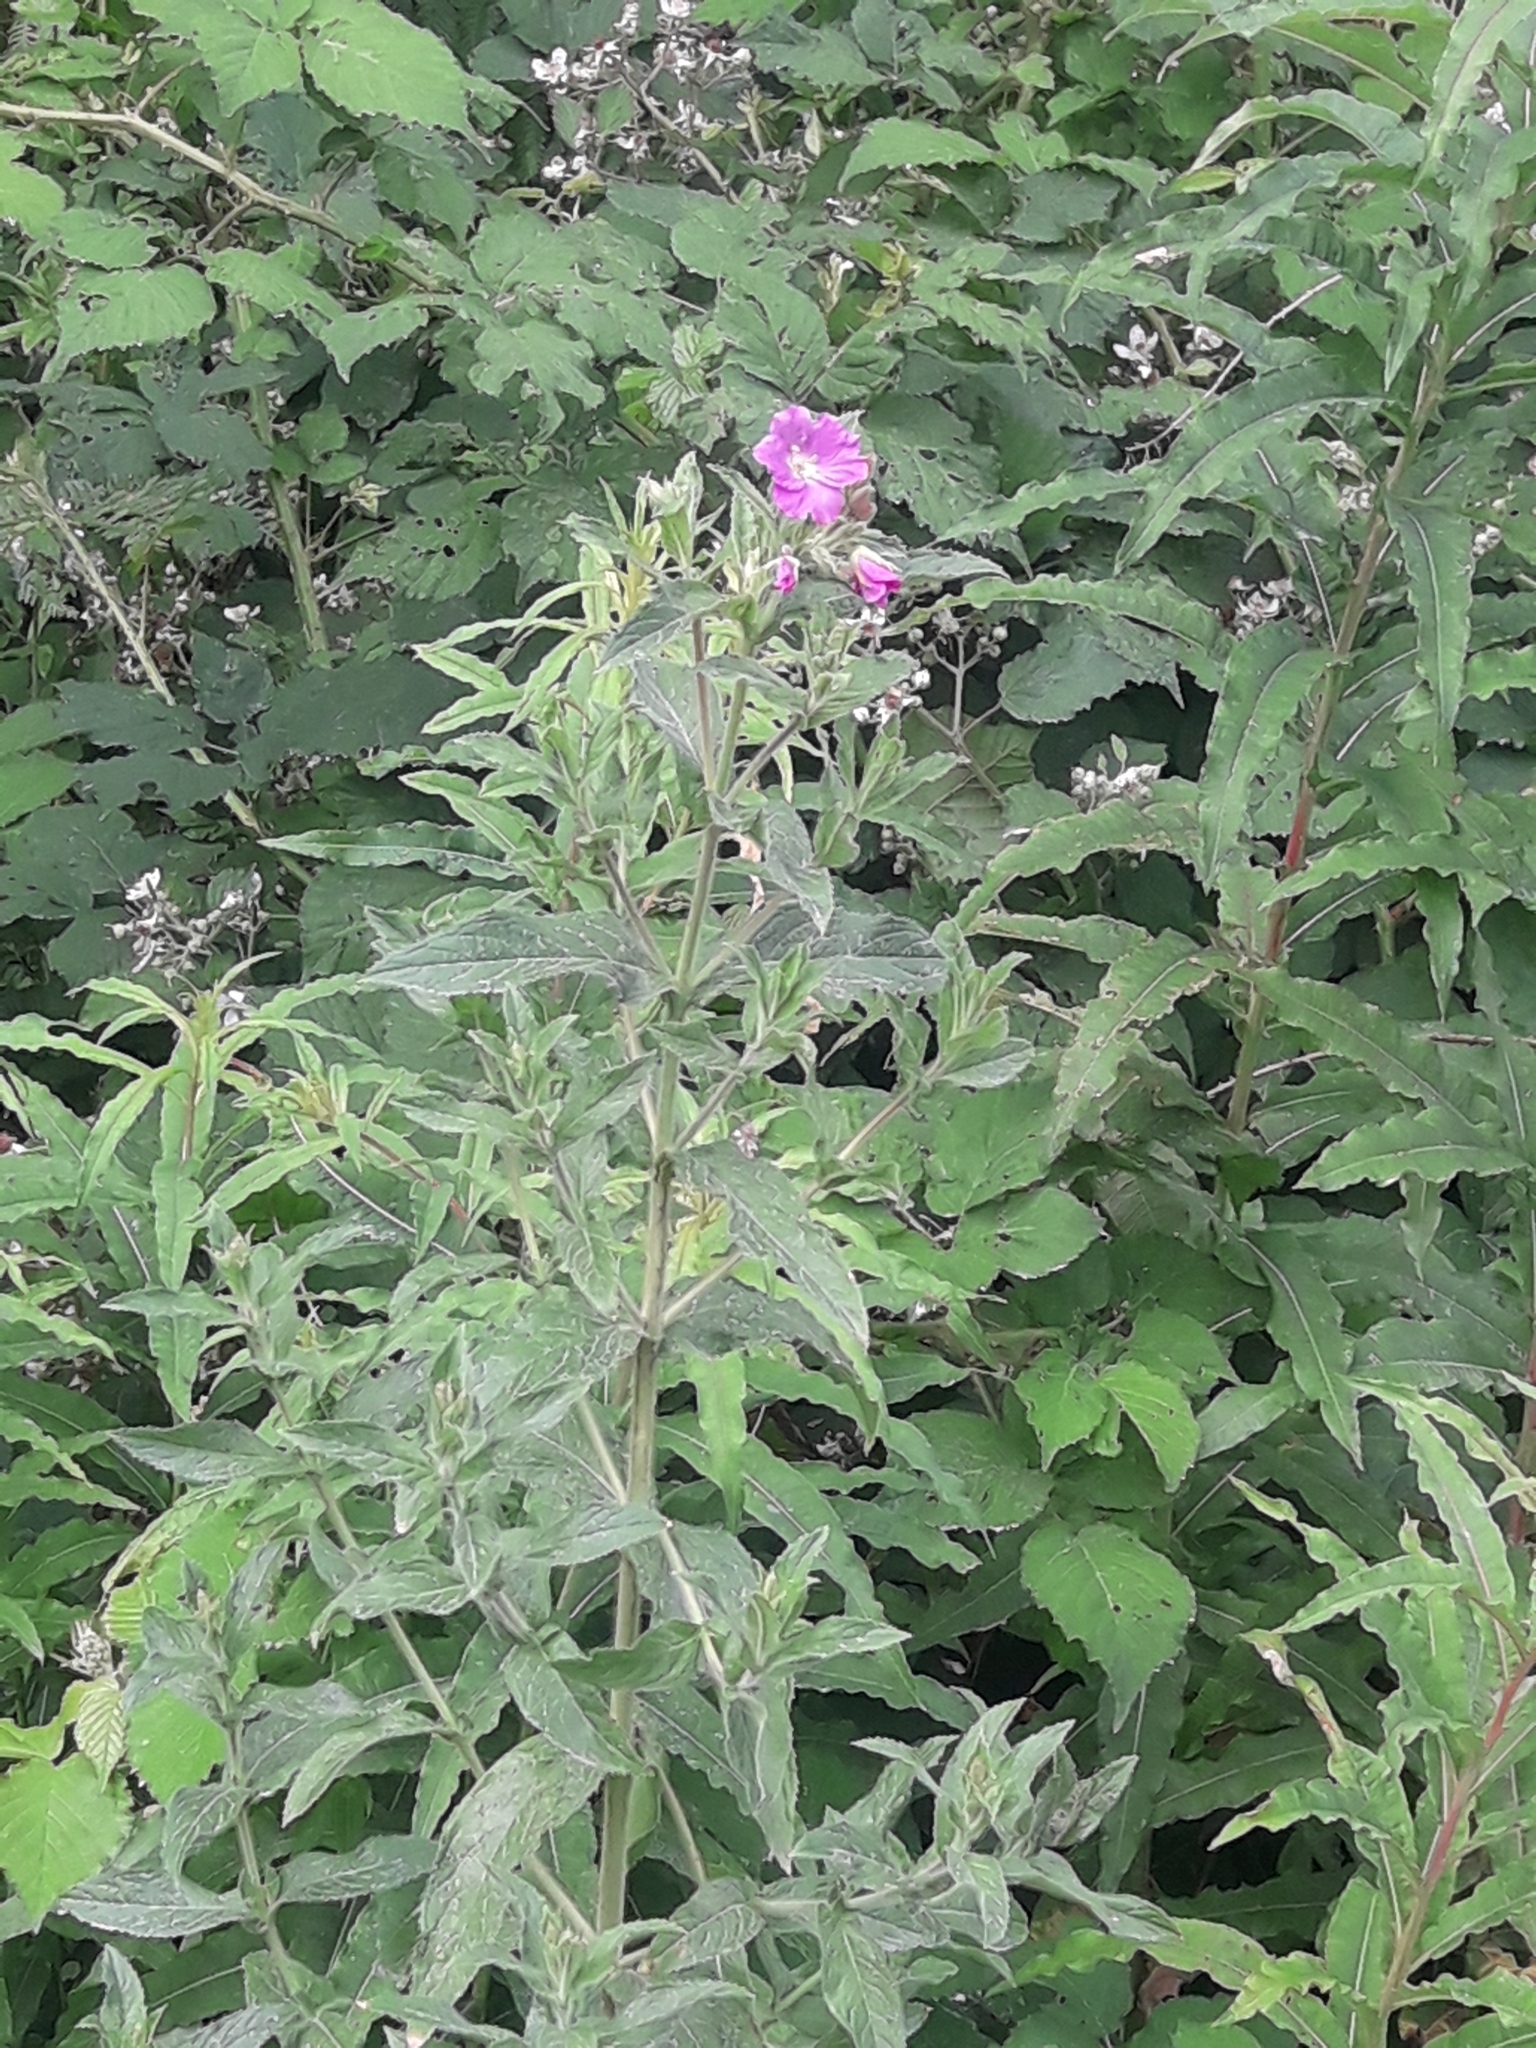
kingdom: Plantae
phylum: Tracheophyta
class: Magnoliopsida
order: Myrtales
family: Onagraceae
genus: Epilobium
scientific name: Epilobium hirsutum
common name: Great willowherb
